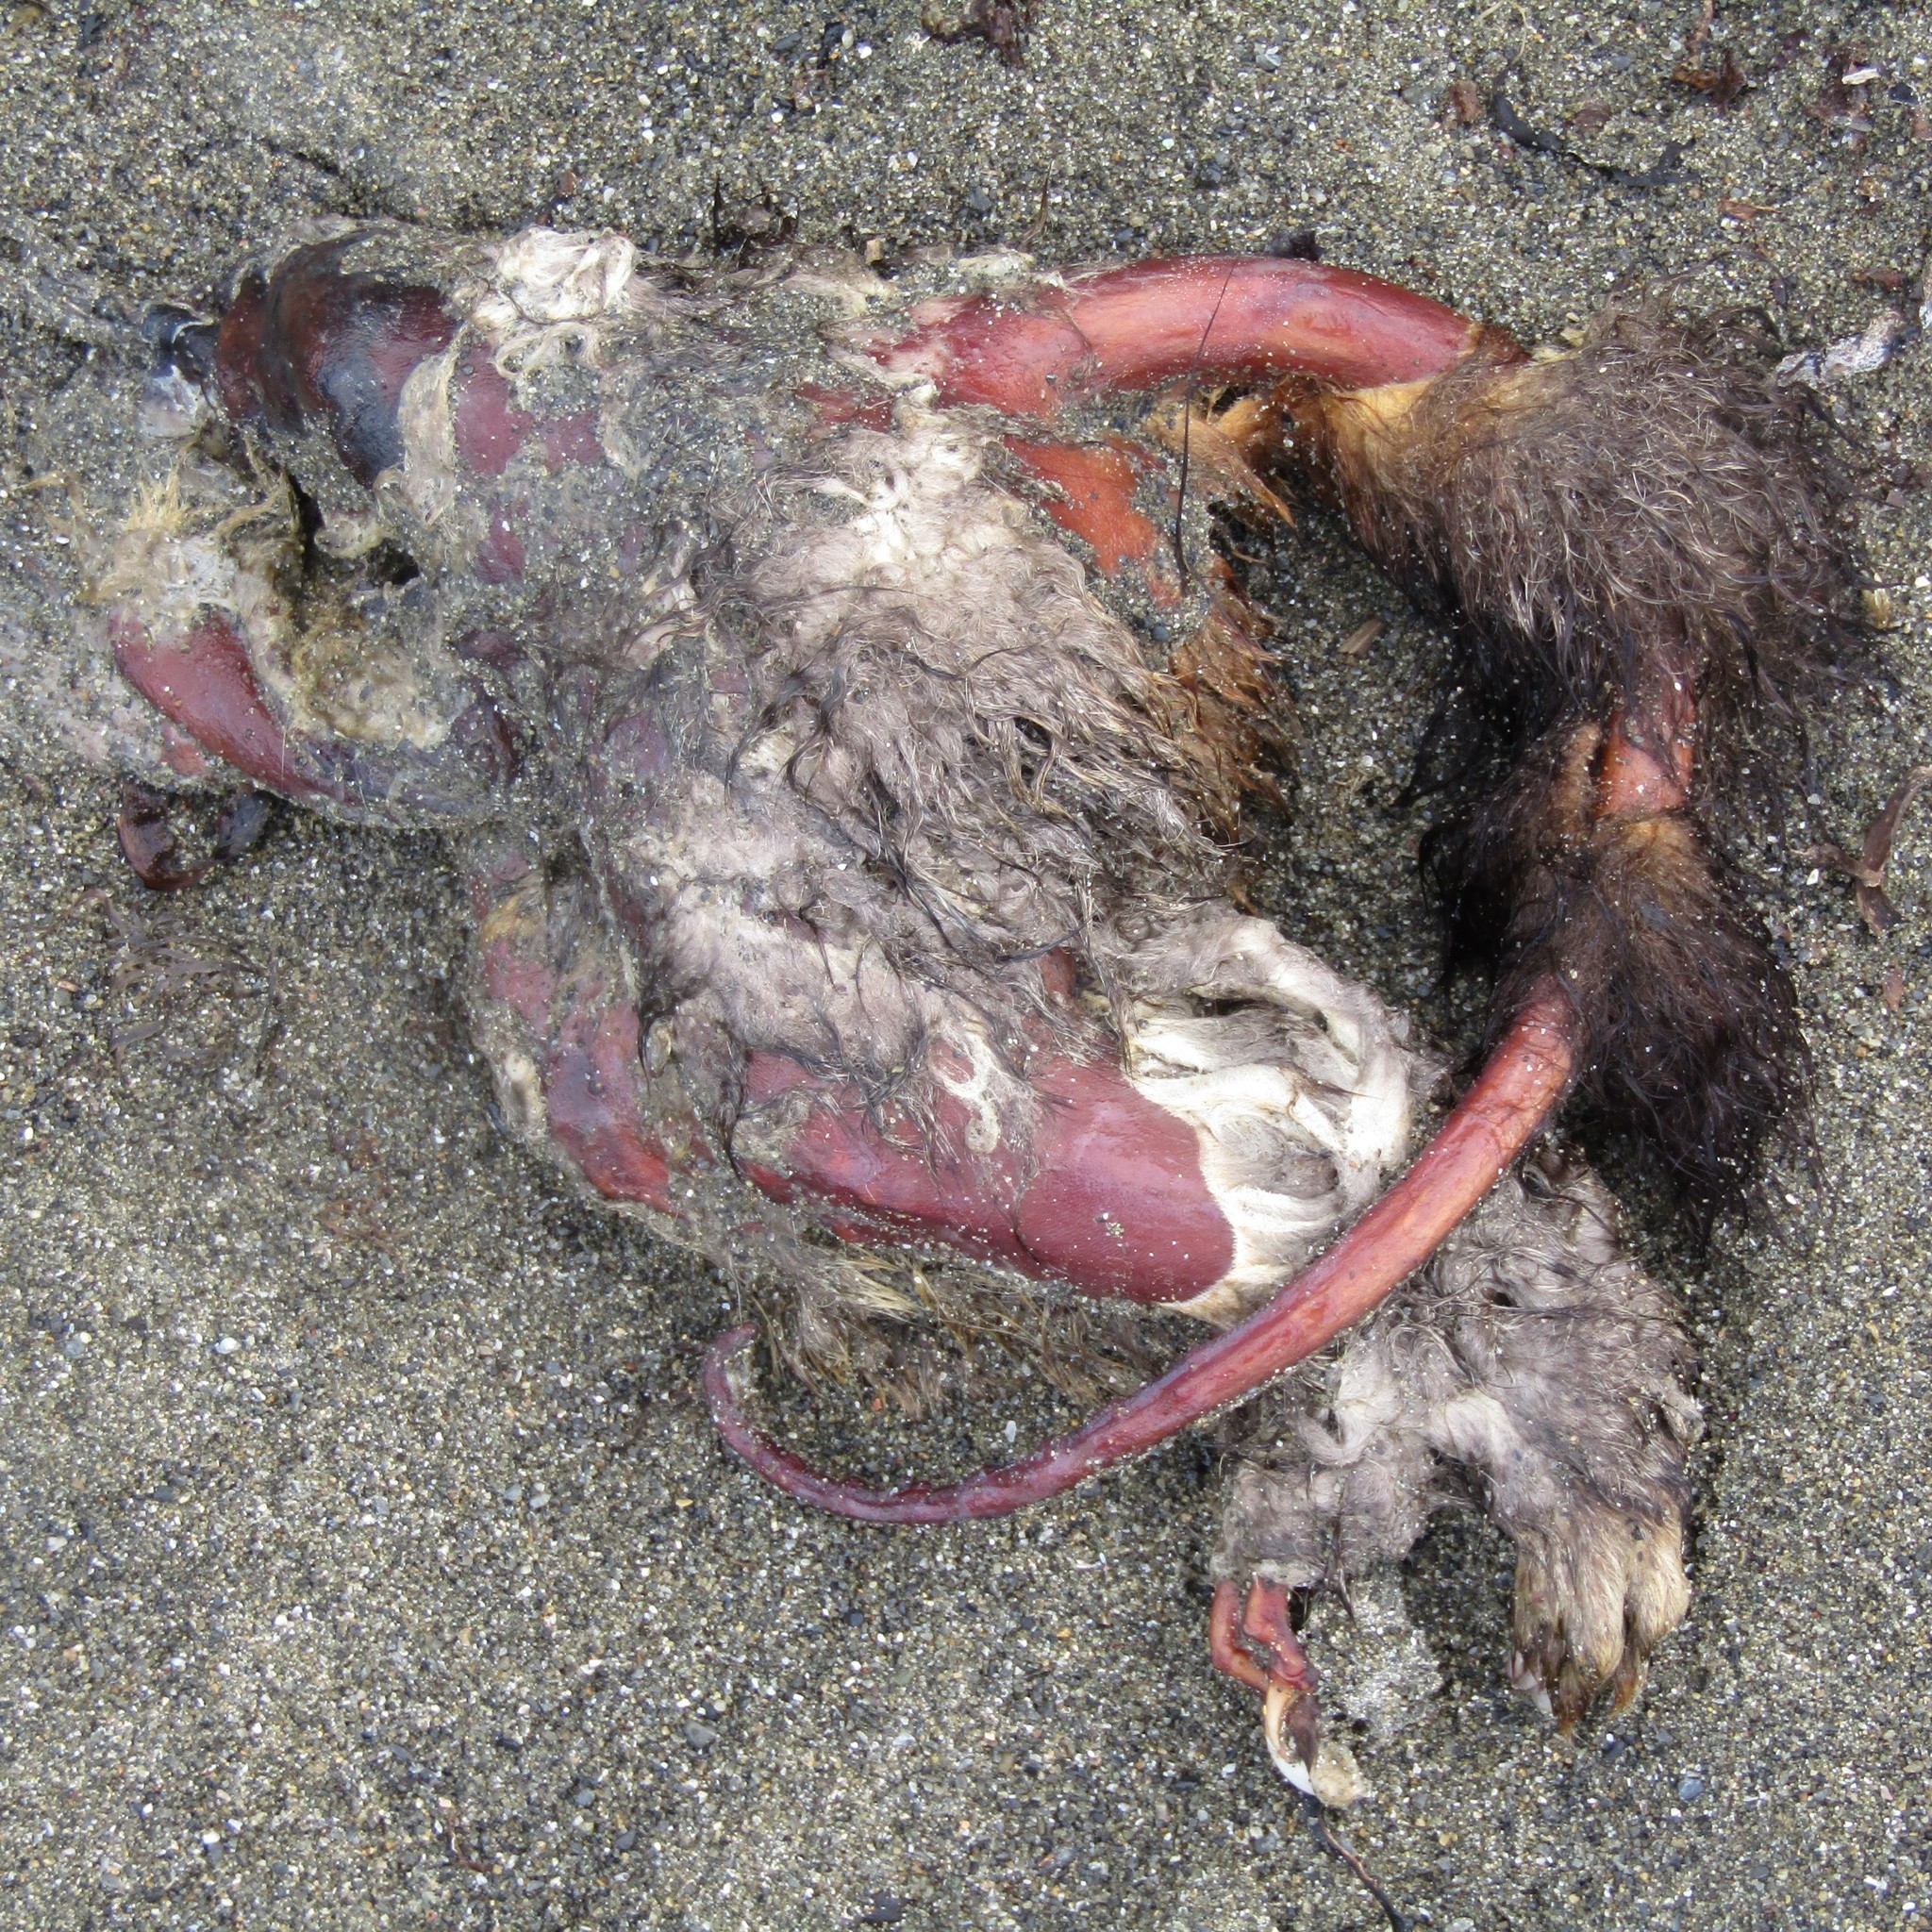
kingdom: Animalia
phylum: Chordata
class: Mammalia
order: Diprotodontia
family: Phalangeridae
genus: Trichosurus
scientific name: Trichosurus vulpecula
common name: Common brushtail
